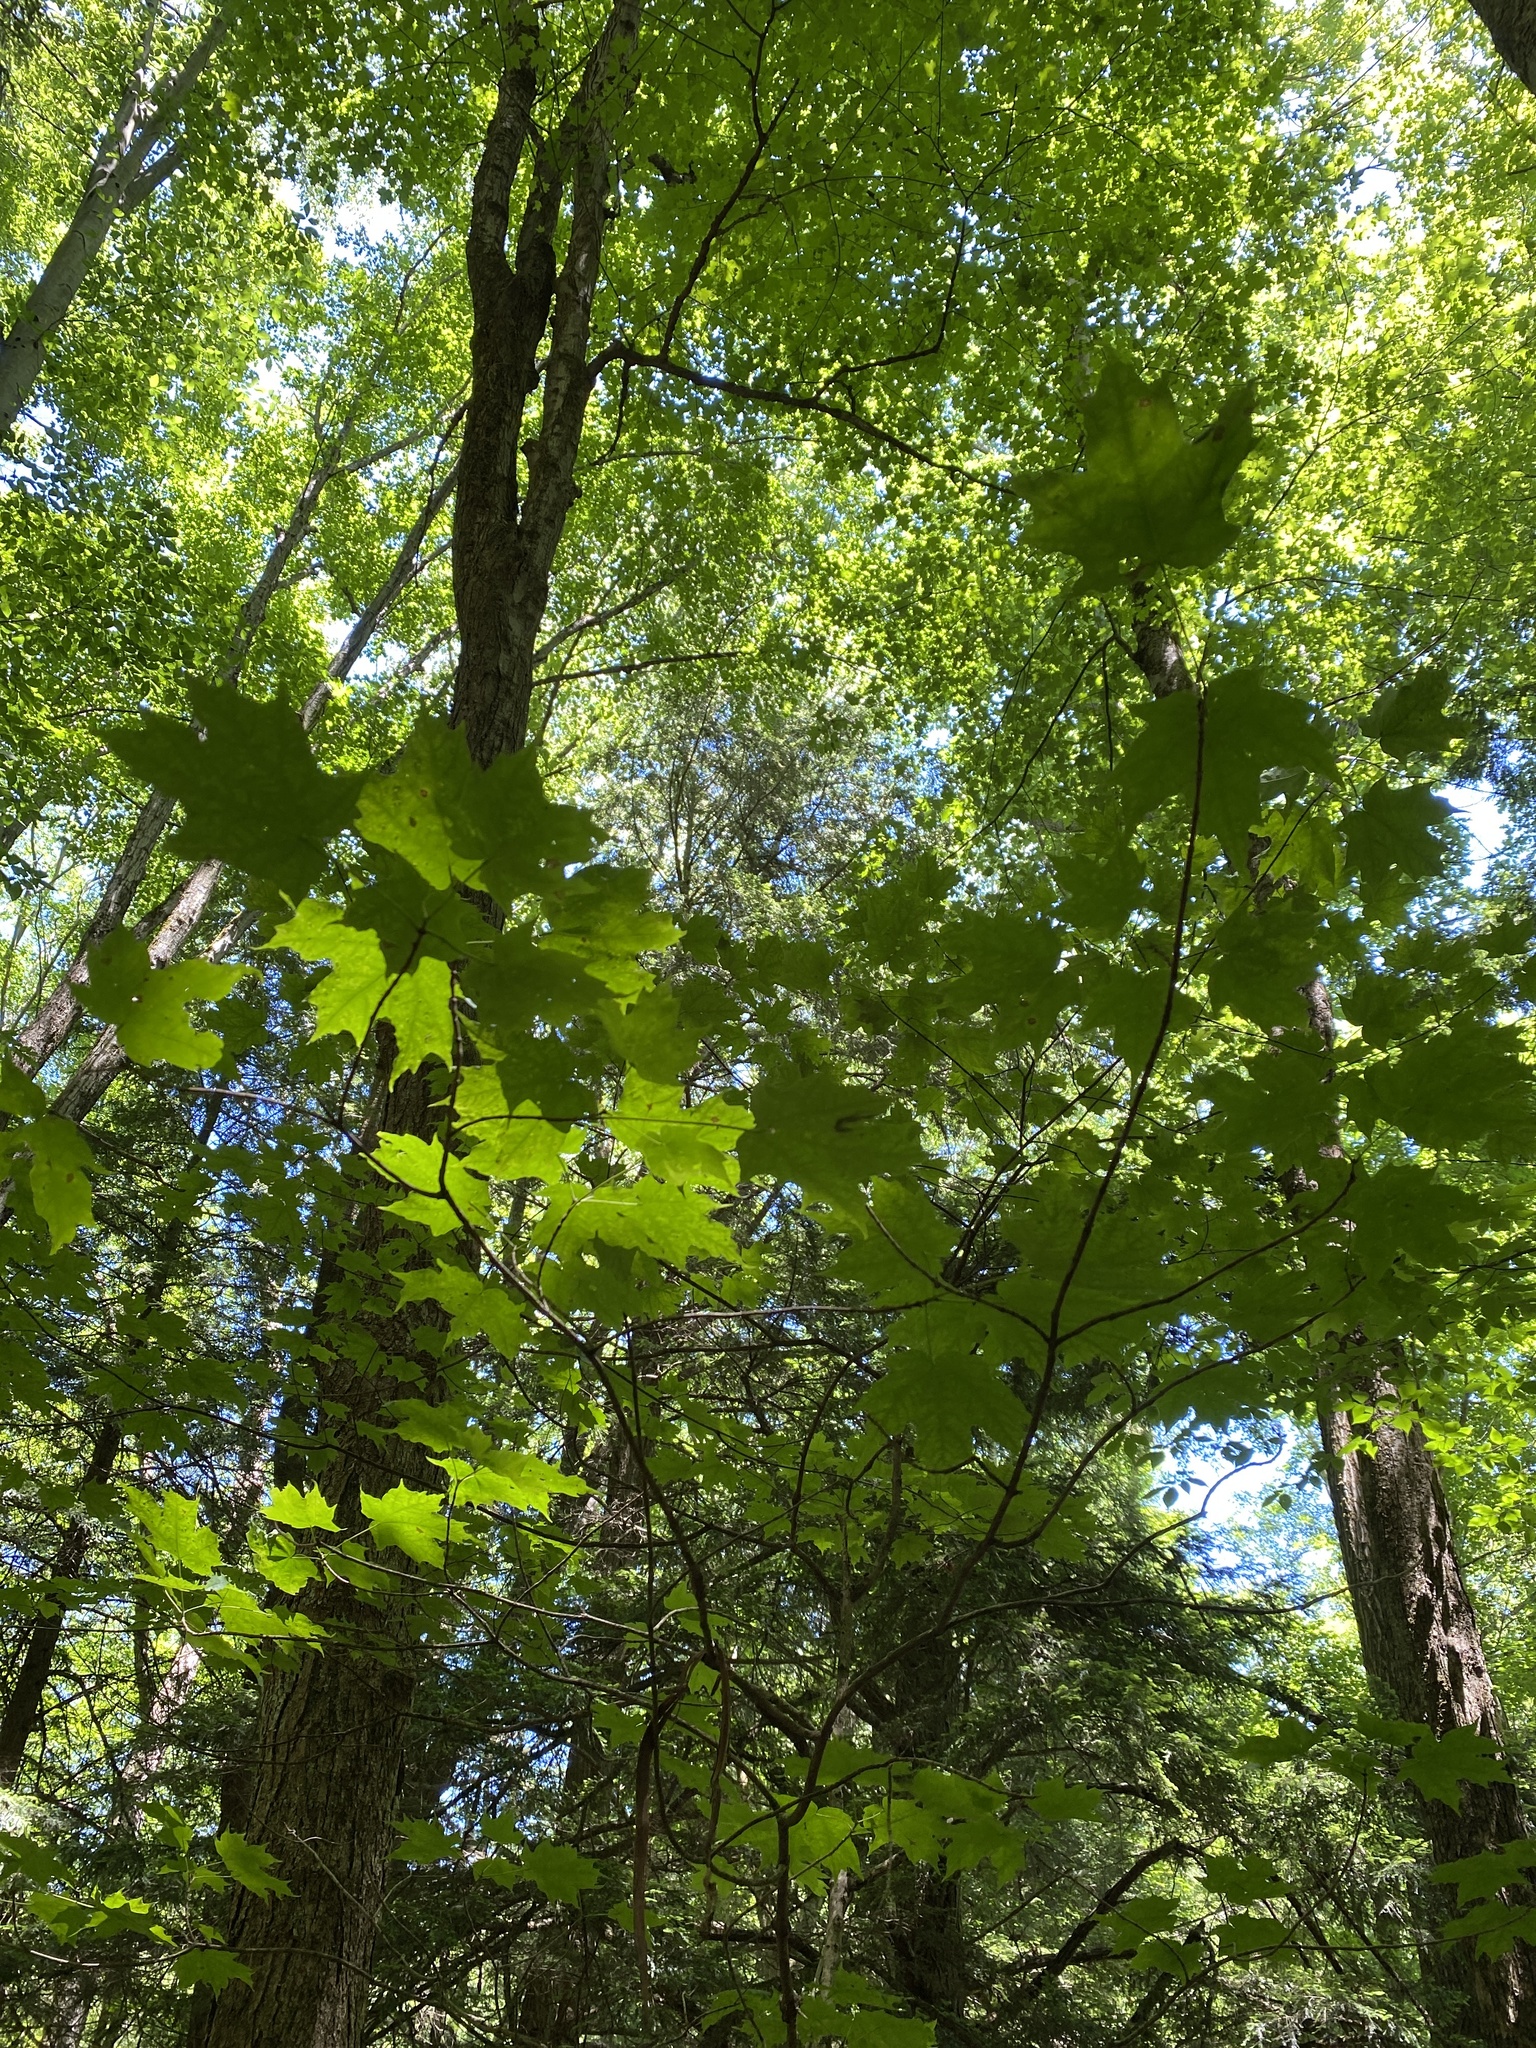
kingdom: Plantae
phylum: Tracheophyta
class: Magnoliopsida
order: Sapindales
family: Sapindaceae
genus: Acer
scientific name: Acer saccharum
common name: Sugar maple
